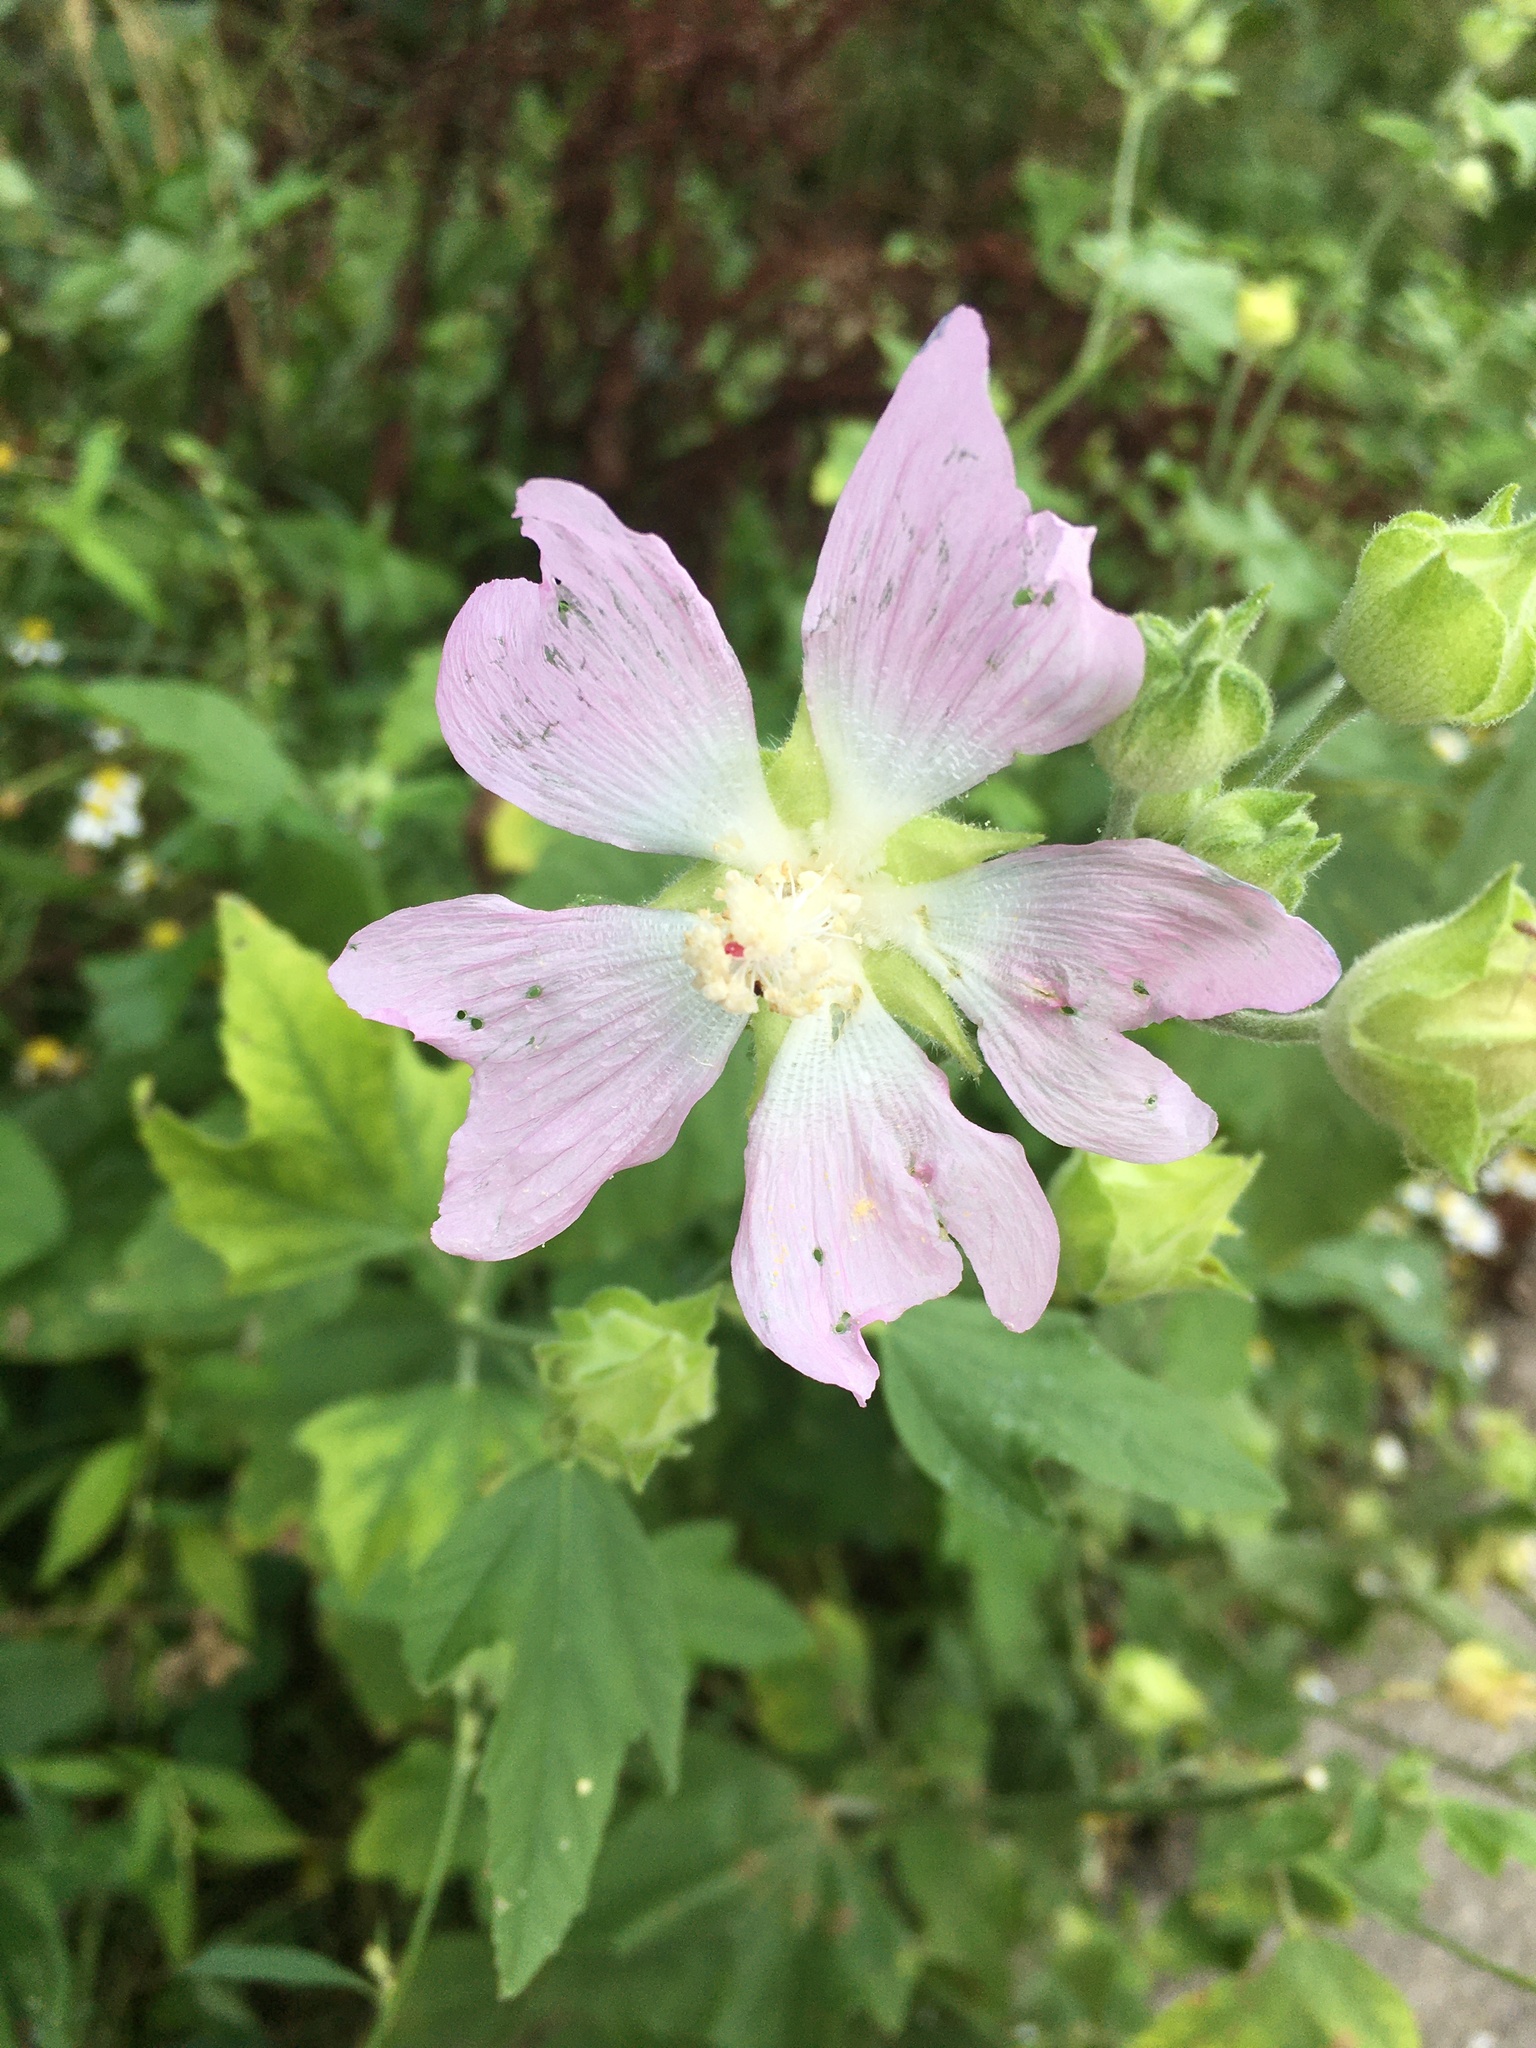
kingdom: Plantae
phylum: Tracheophyta
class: Magnoliopsida
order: Malvales
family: Malvaceae
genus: Malva
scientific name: Malva thuringiaca
